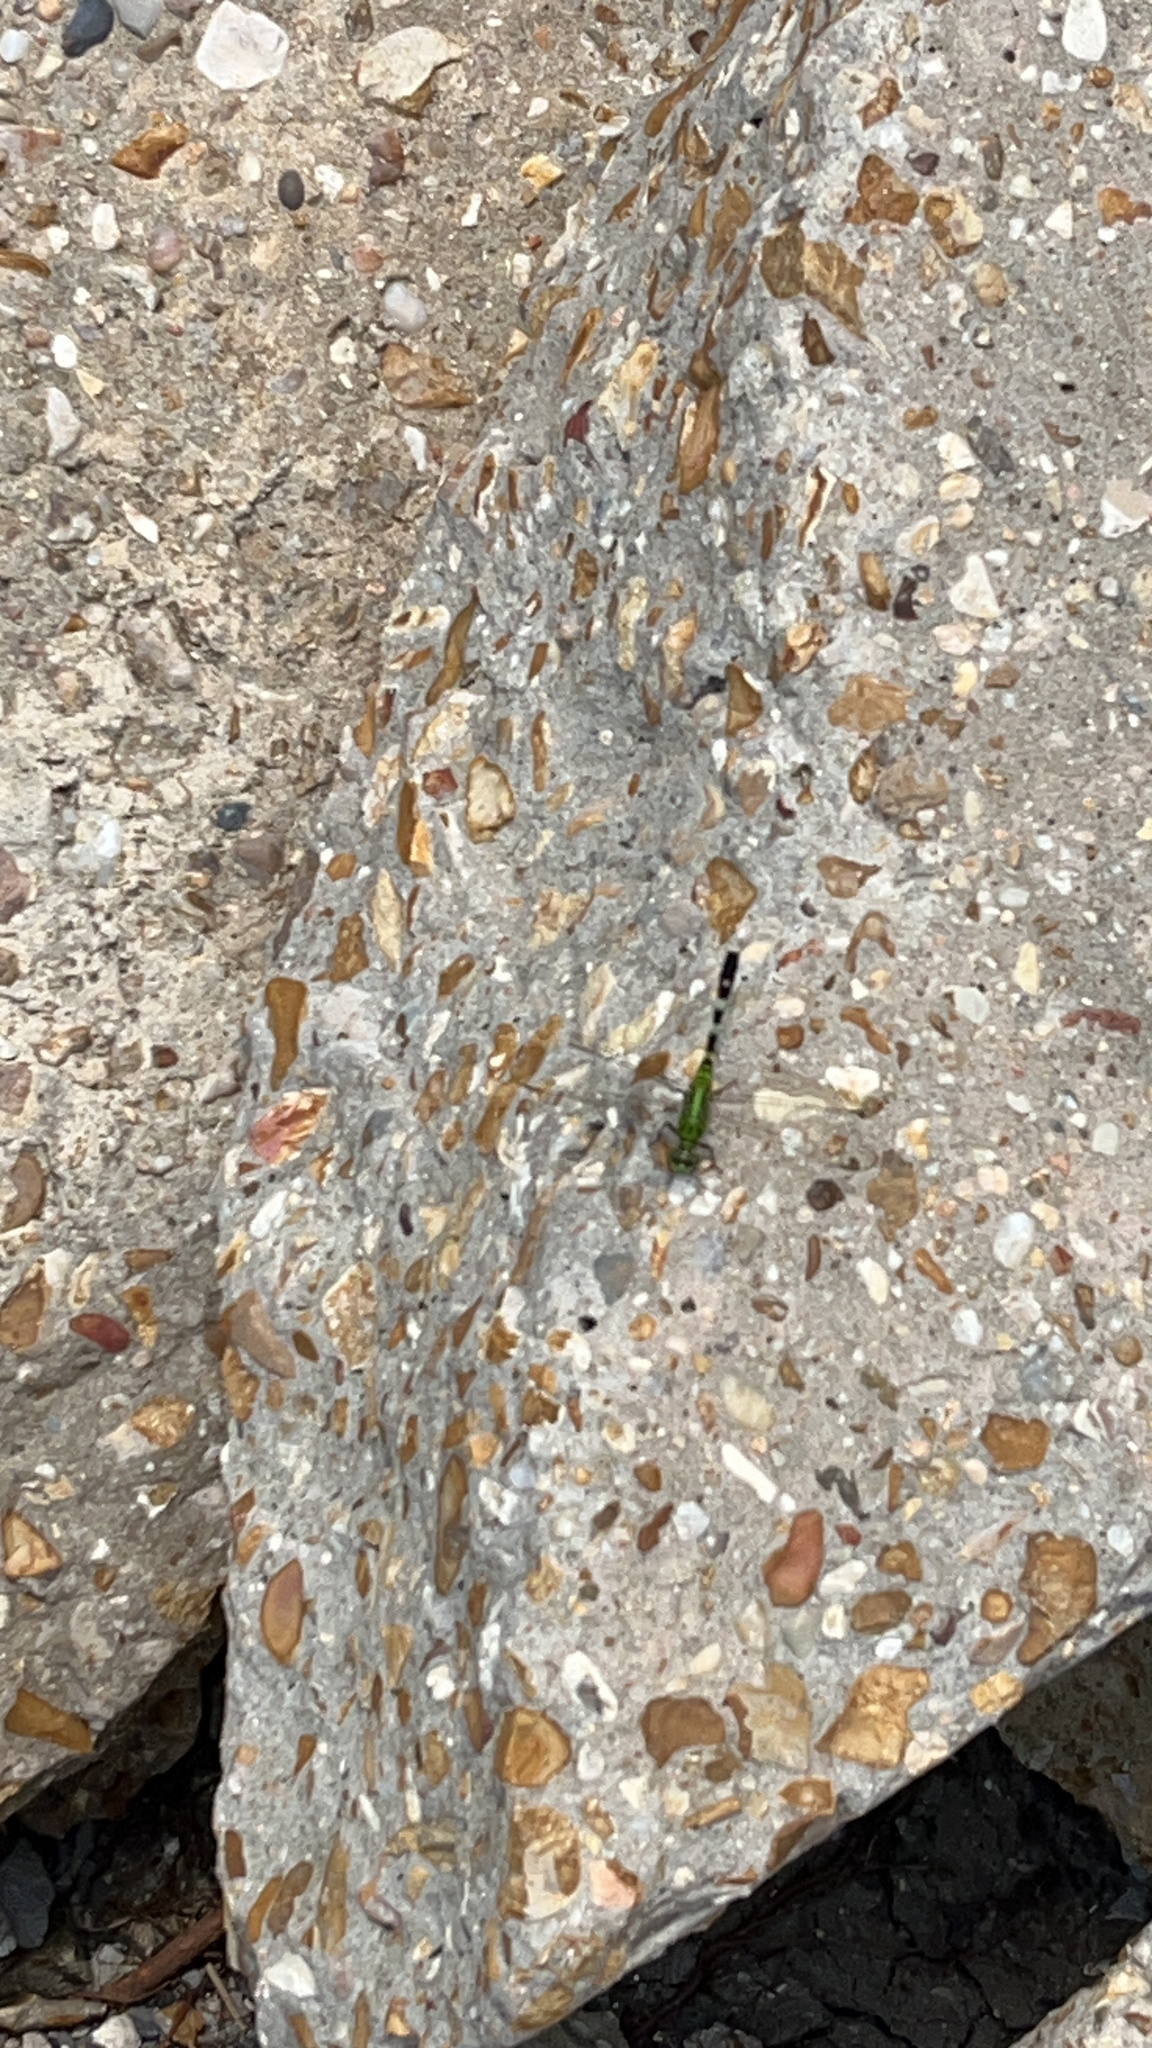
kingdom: Animalia
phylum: Arthropoda
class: Insecta
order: Odonata
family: Libellulidae
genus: Erythemis
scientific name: Erythemis simplicicollis
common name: Eastern pondhawk
